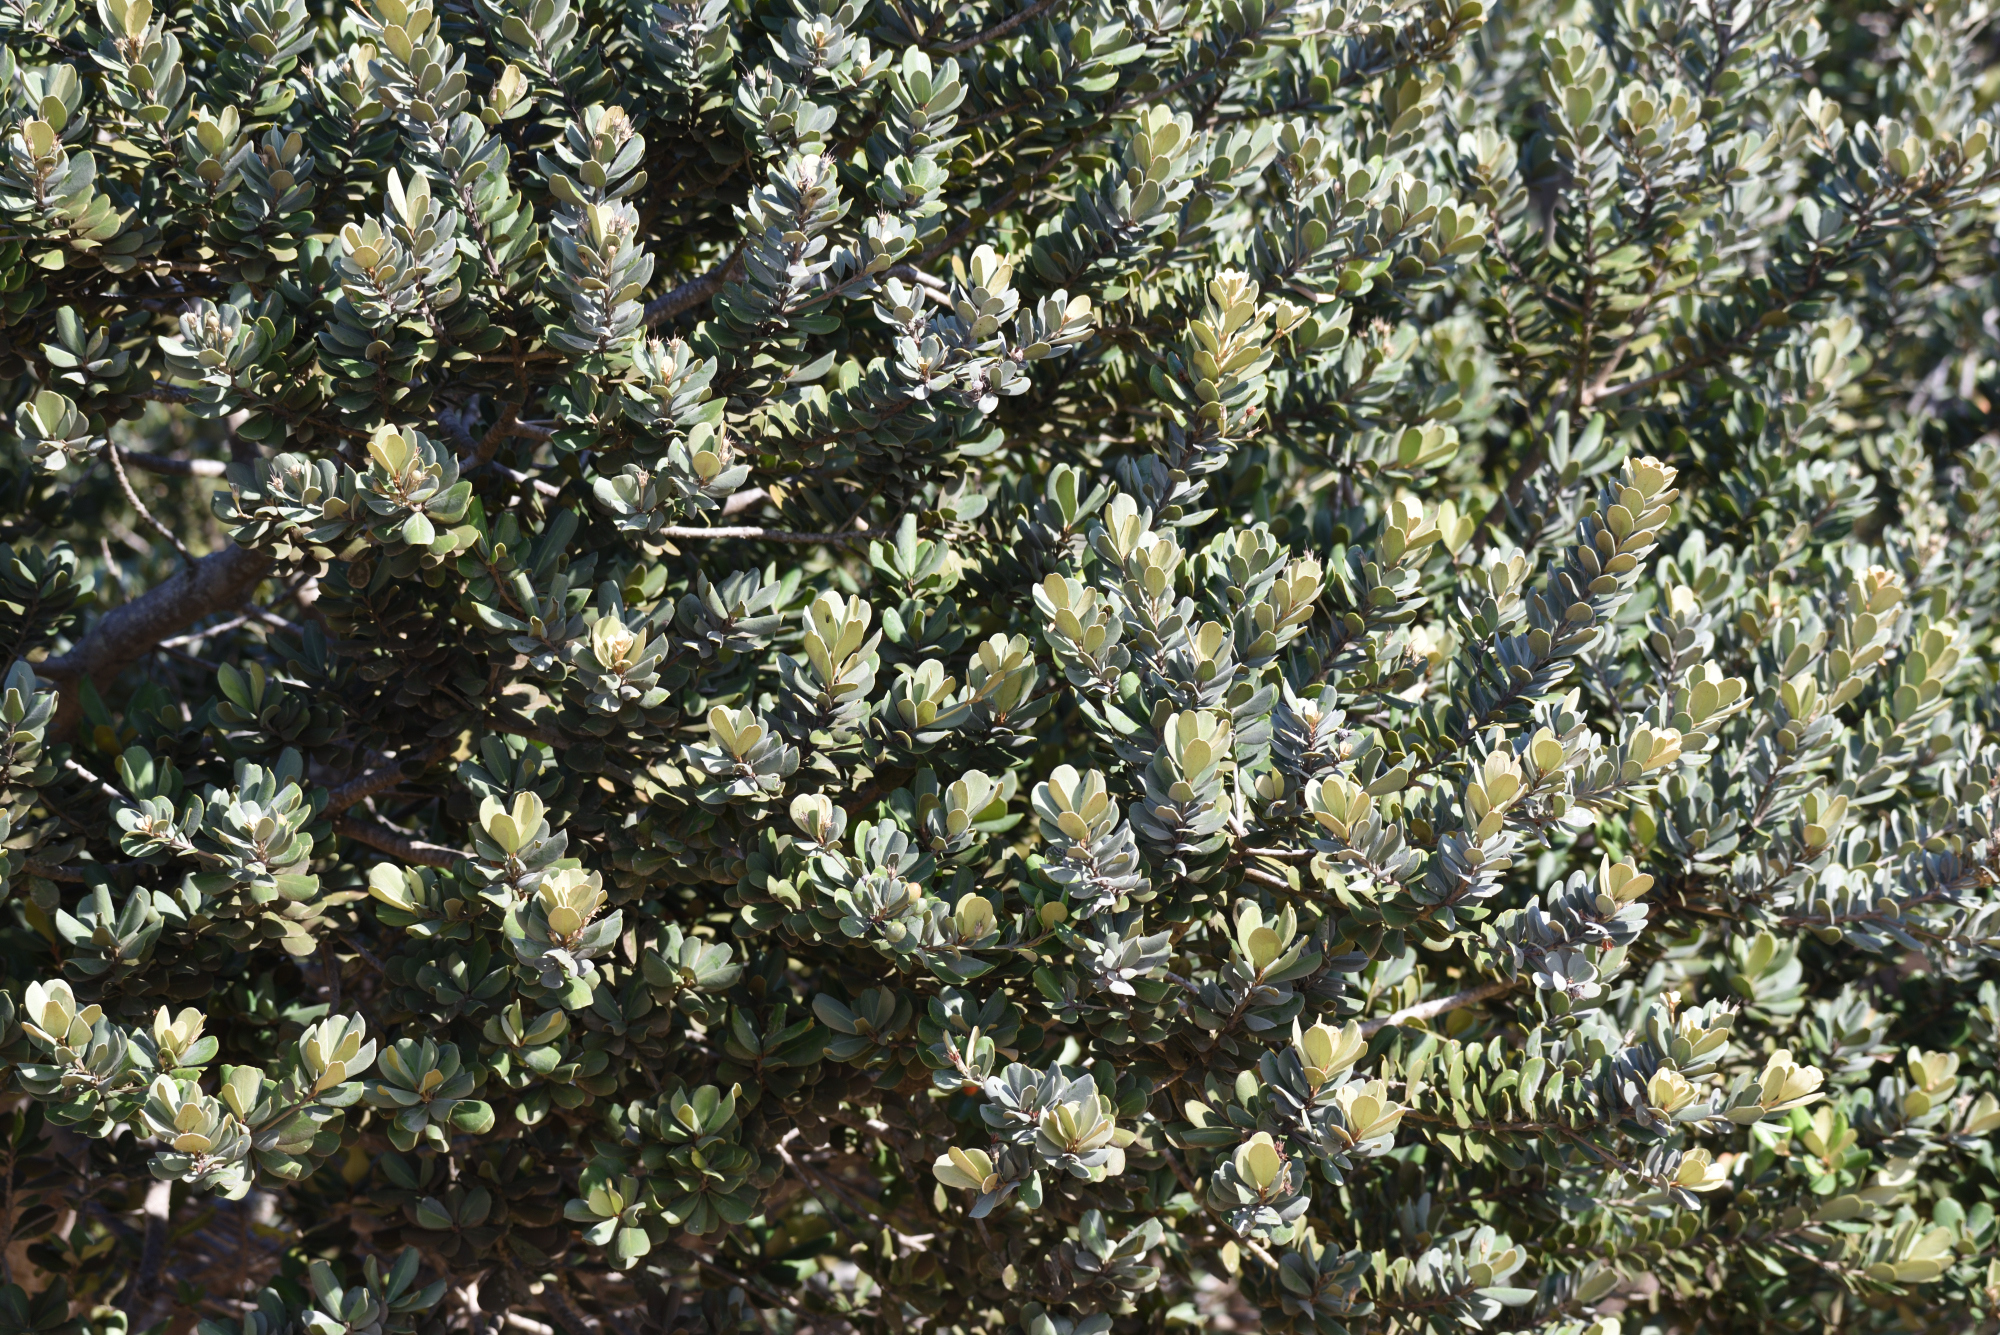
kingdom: Plantae
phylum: Tracheophyta
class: Magnoliopsida
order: Ericales
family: Sapotaceae
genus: Mimusops
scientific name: Mimusops caffra
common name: Coastal red milkwood
